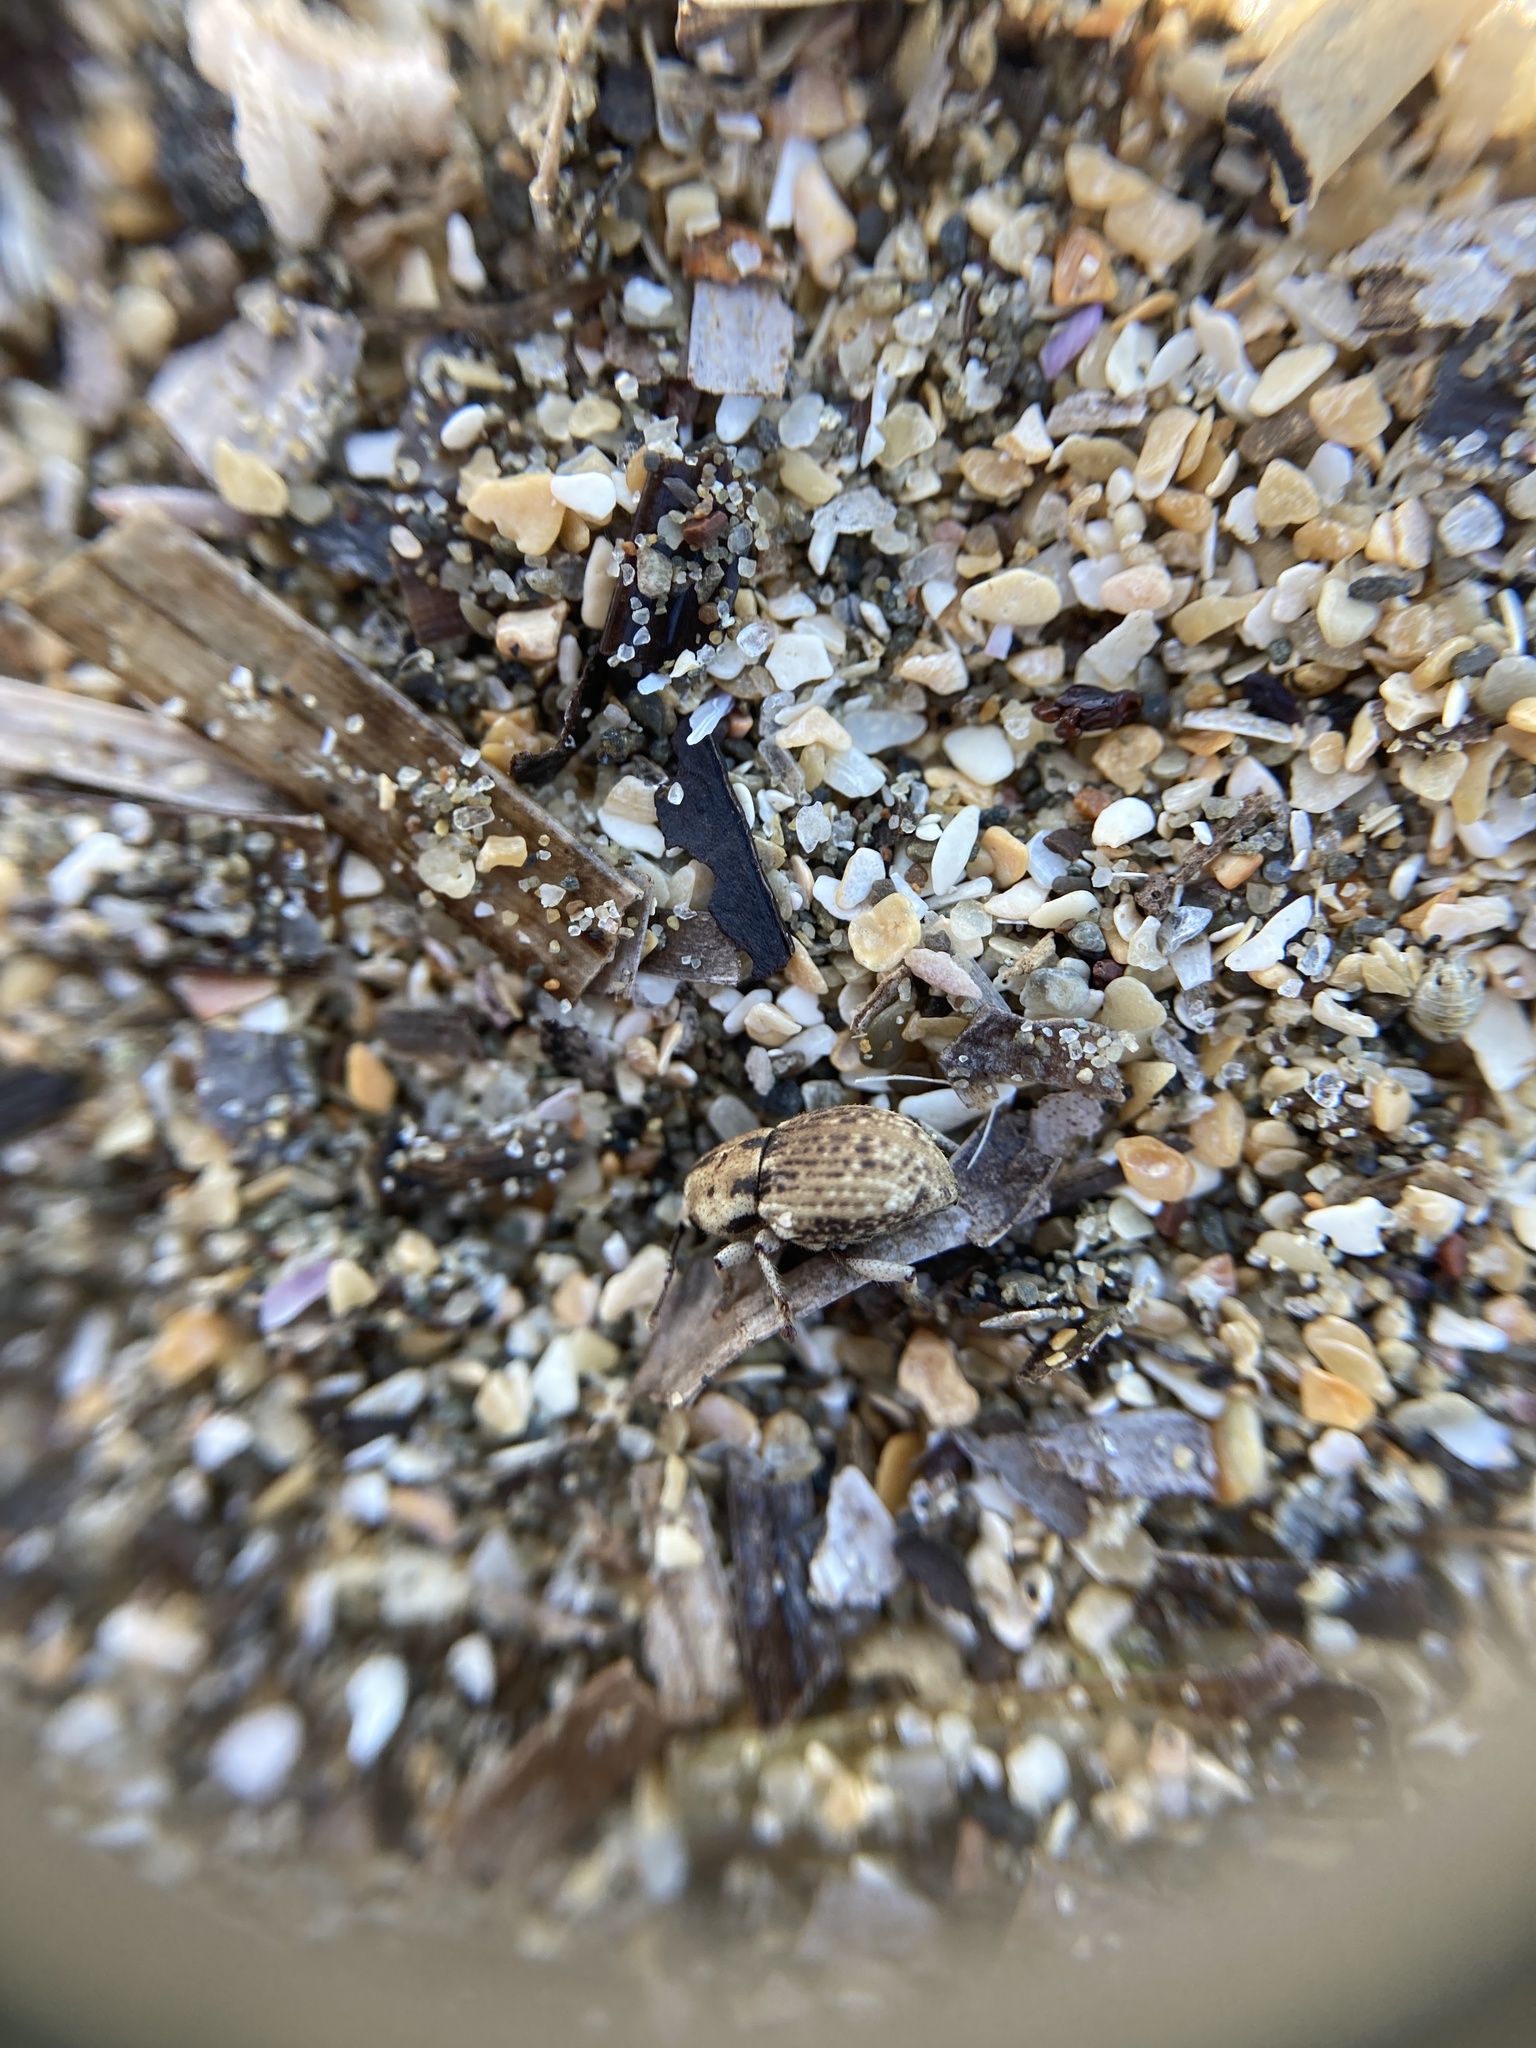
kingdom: Animalia
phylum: Arthropoda
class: Insecta
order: Coleoptera
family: Curculionidae
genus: Cecyropa
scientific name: Cecyropa discors
